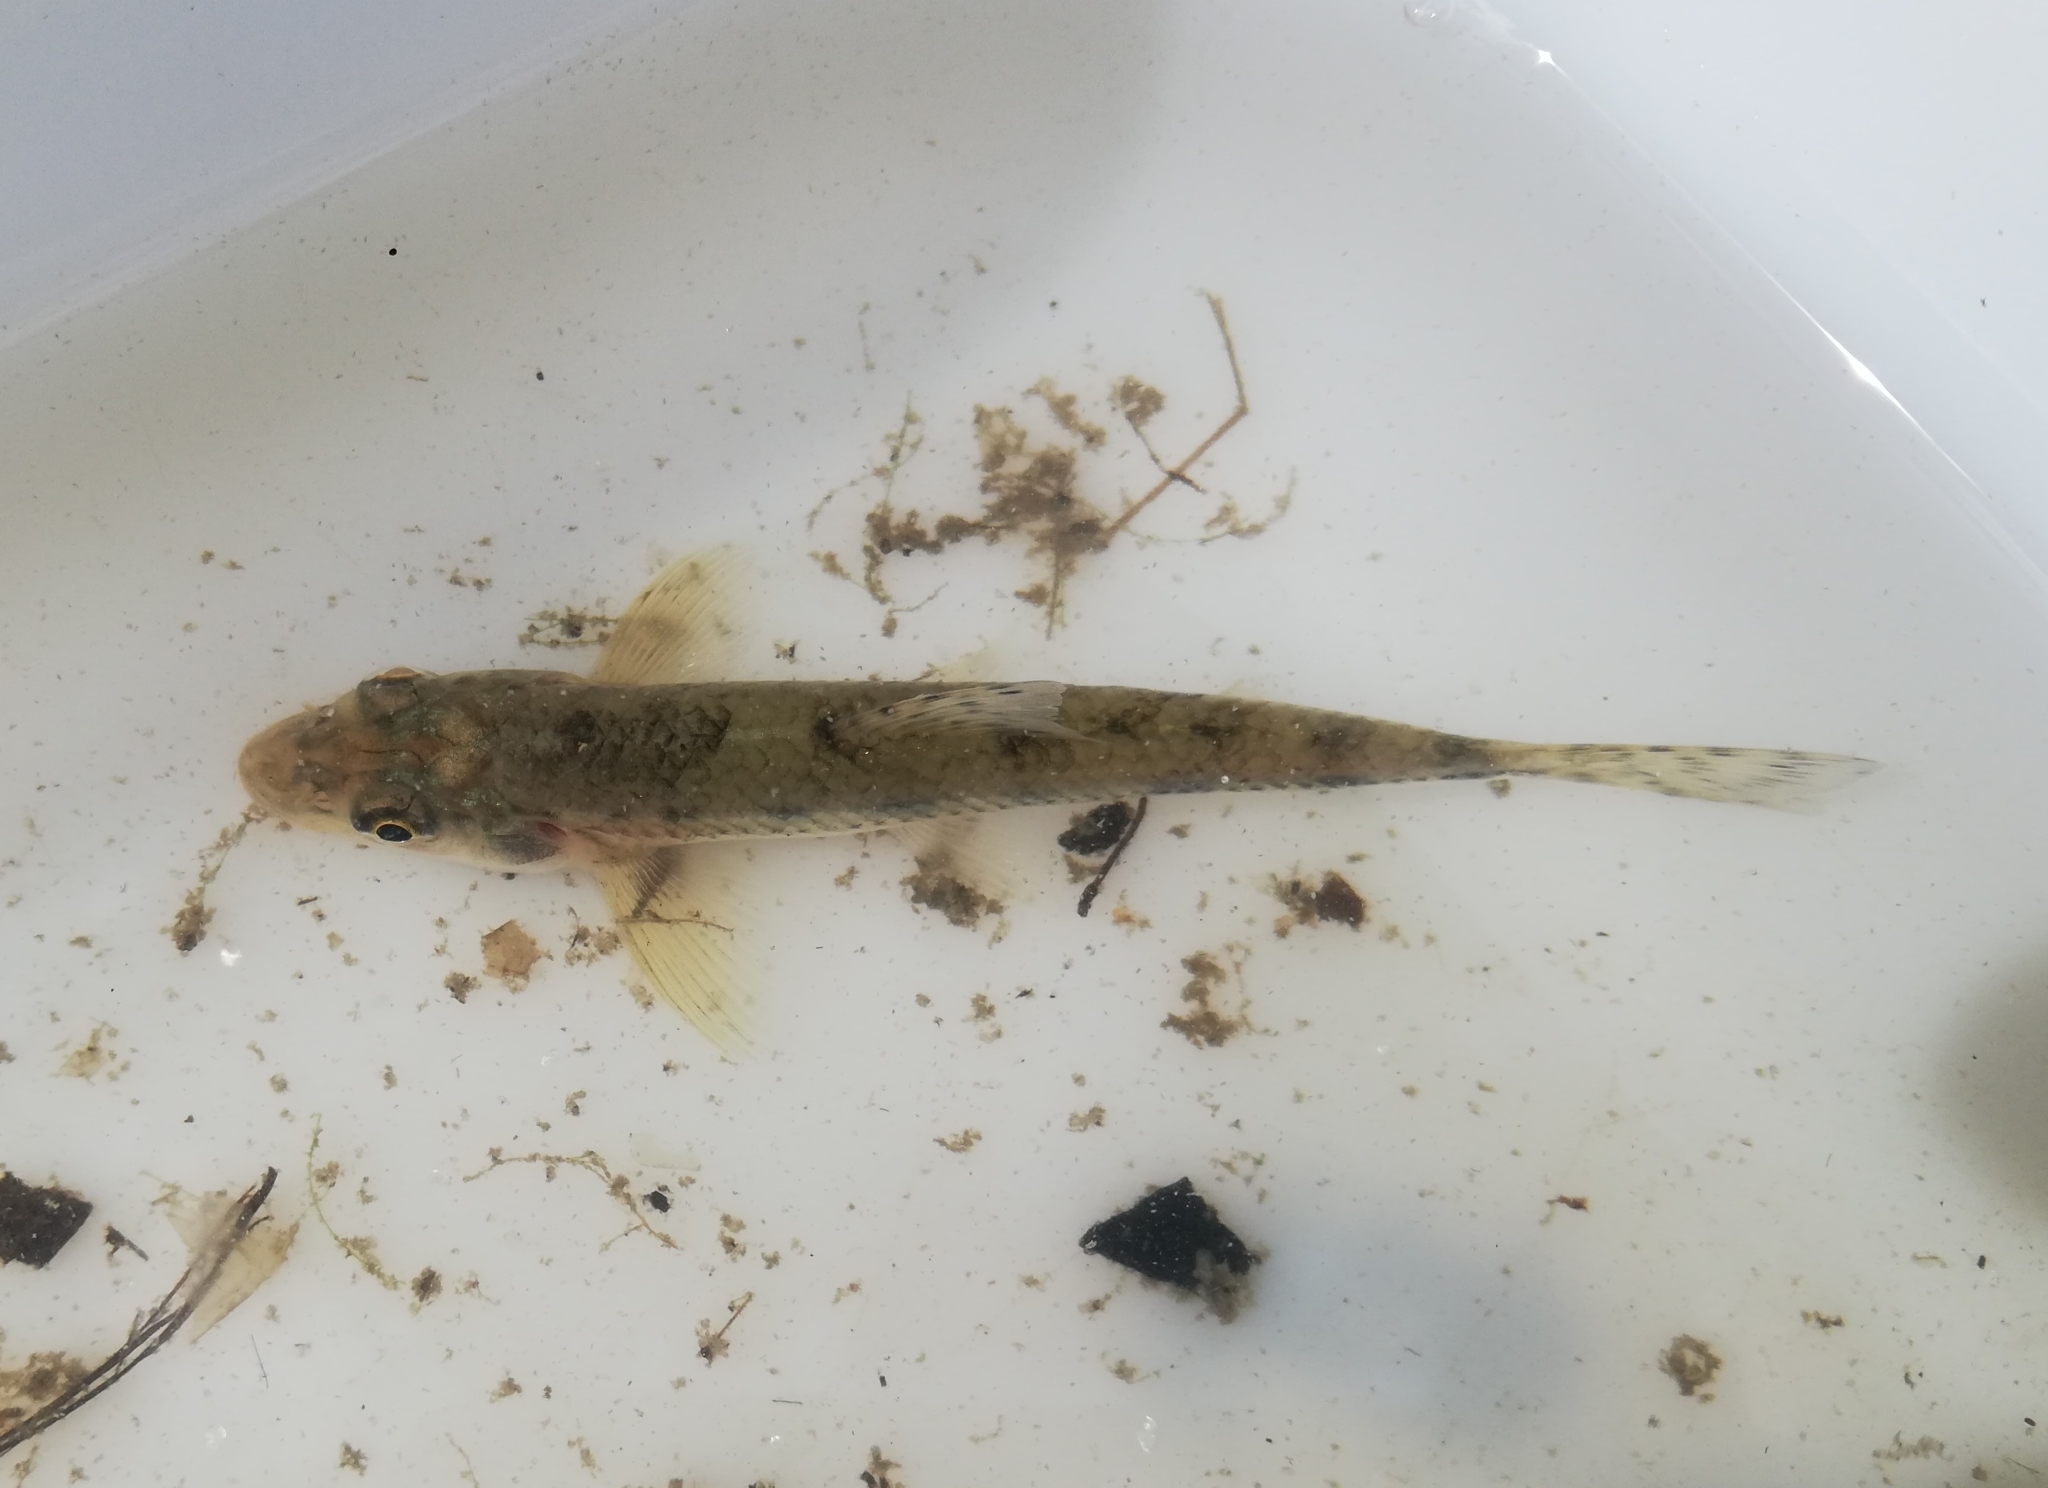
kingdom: Animalia
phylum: Chordata
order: Cypriniformes
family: Cyprinidae
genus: Gobio
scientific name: Gobio gobio
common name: Gudgeon
